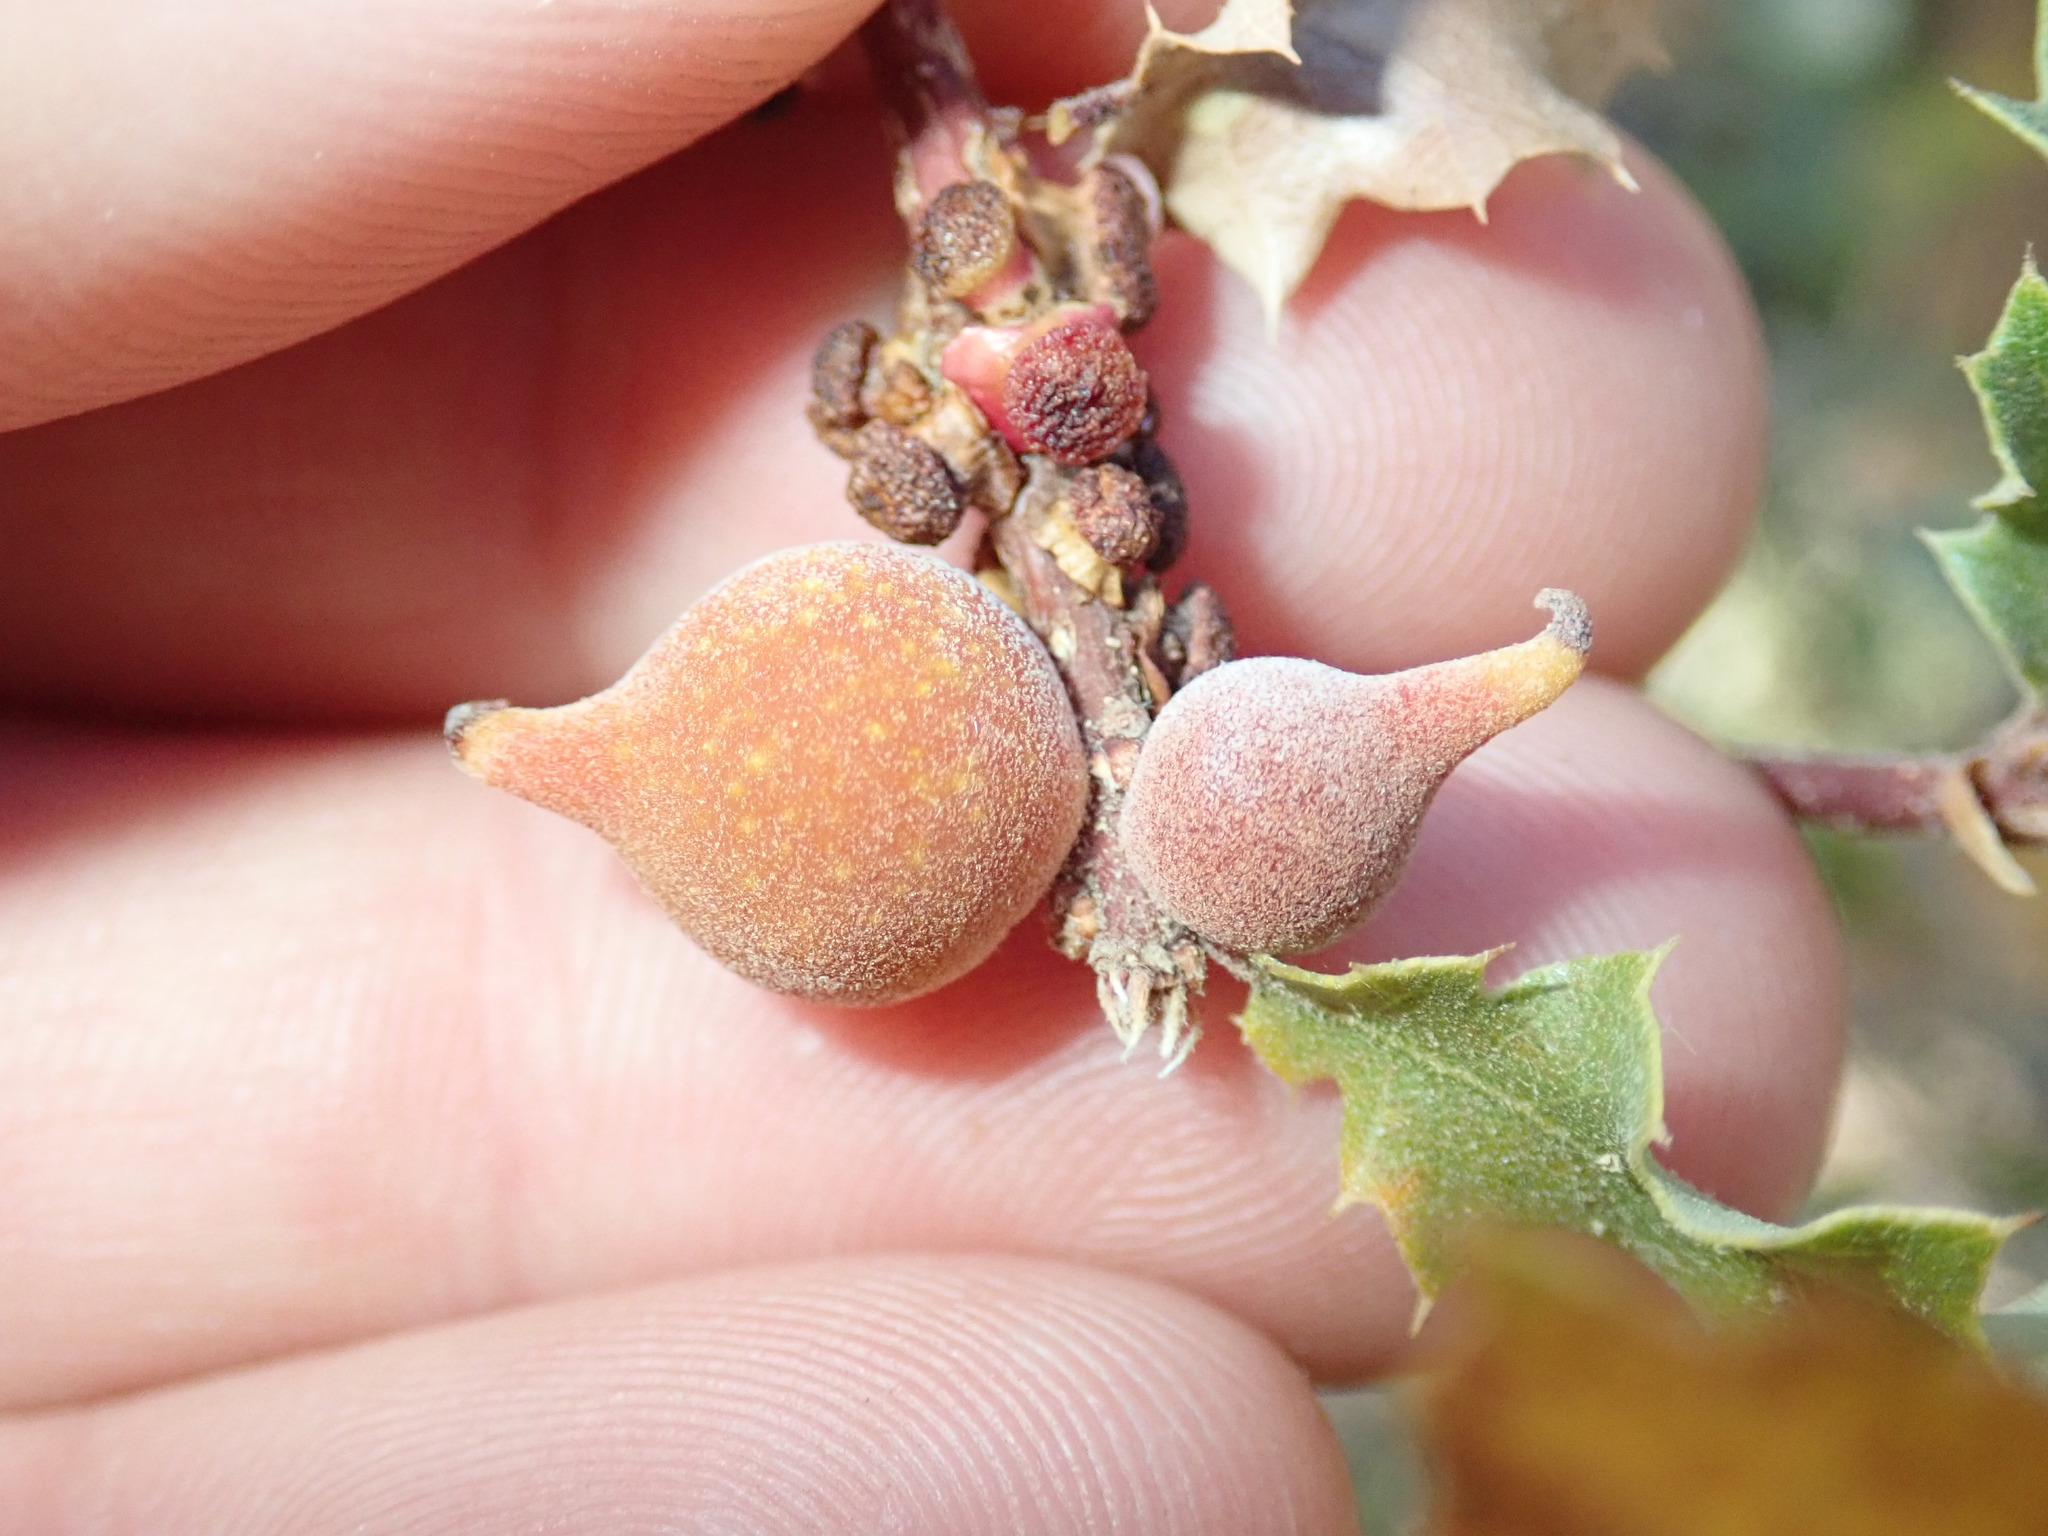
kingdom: Animalia
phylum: Arthropoda
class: Insecta
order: Hymenoptera
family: Cynipidae
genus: Burnettweldia
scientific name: Burnettweldia
